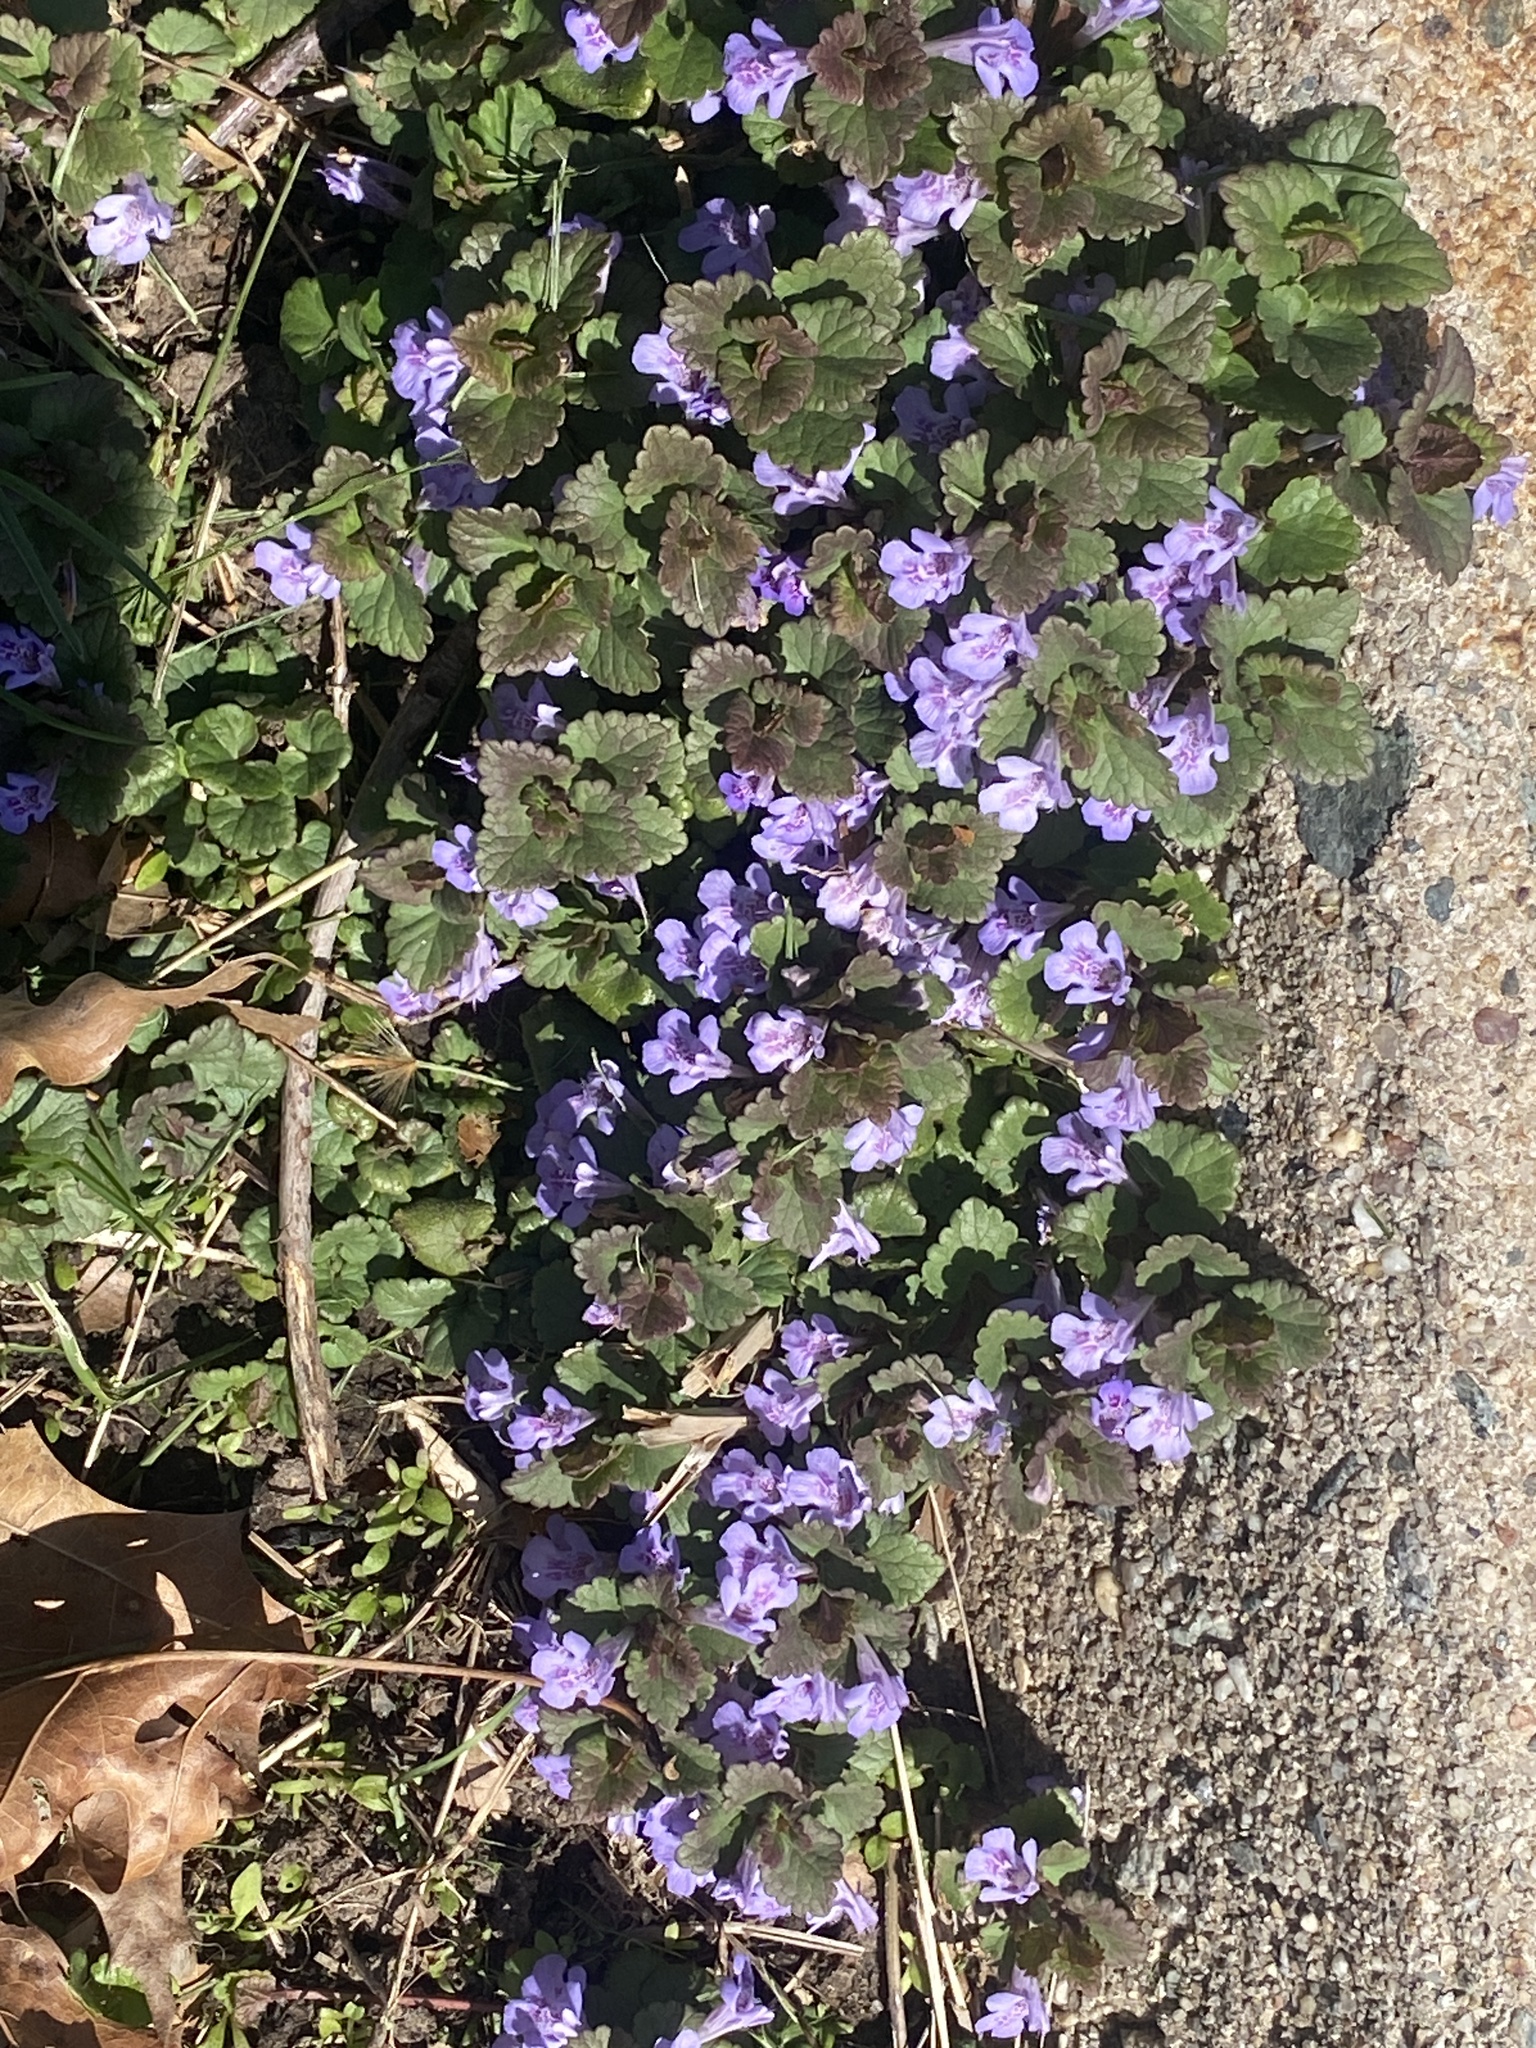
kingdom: Plantae
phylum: Tracheophyta
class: Magnoliopsida
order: Lamiales
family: Lamiaceae
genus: Glechoma
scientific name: Glechoma hederacea
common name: Ground ivy
